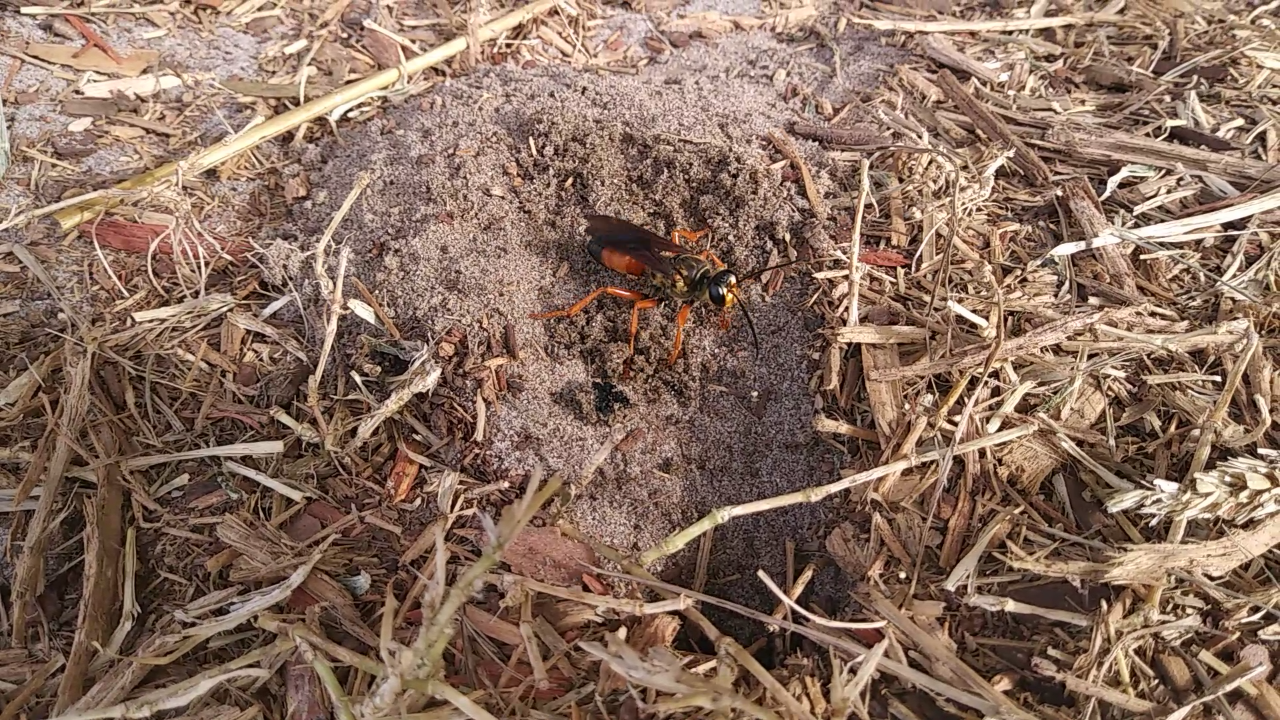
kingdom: Animalia
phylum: Arthropoda
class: Insecta
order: Hymenoptera
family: Sphecidae
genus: Sphex
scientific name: Sphex ichneumoneus
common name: Great golden digger wasp
